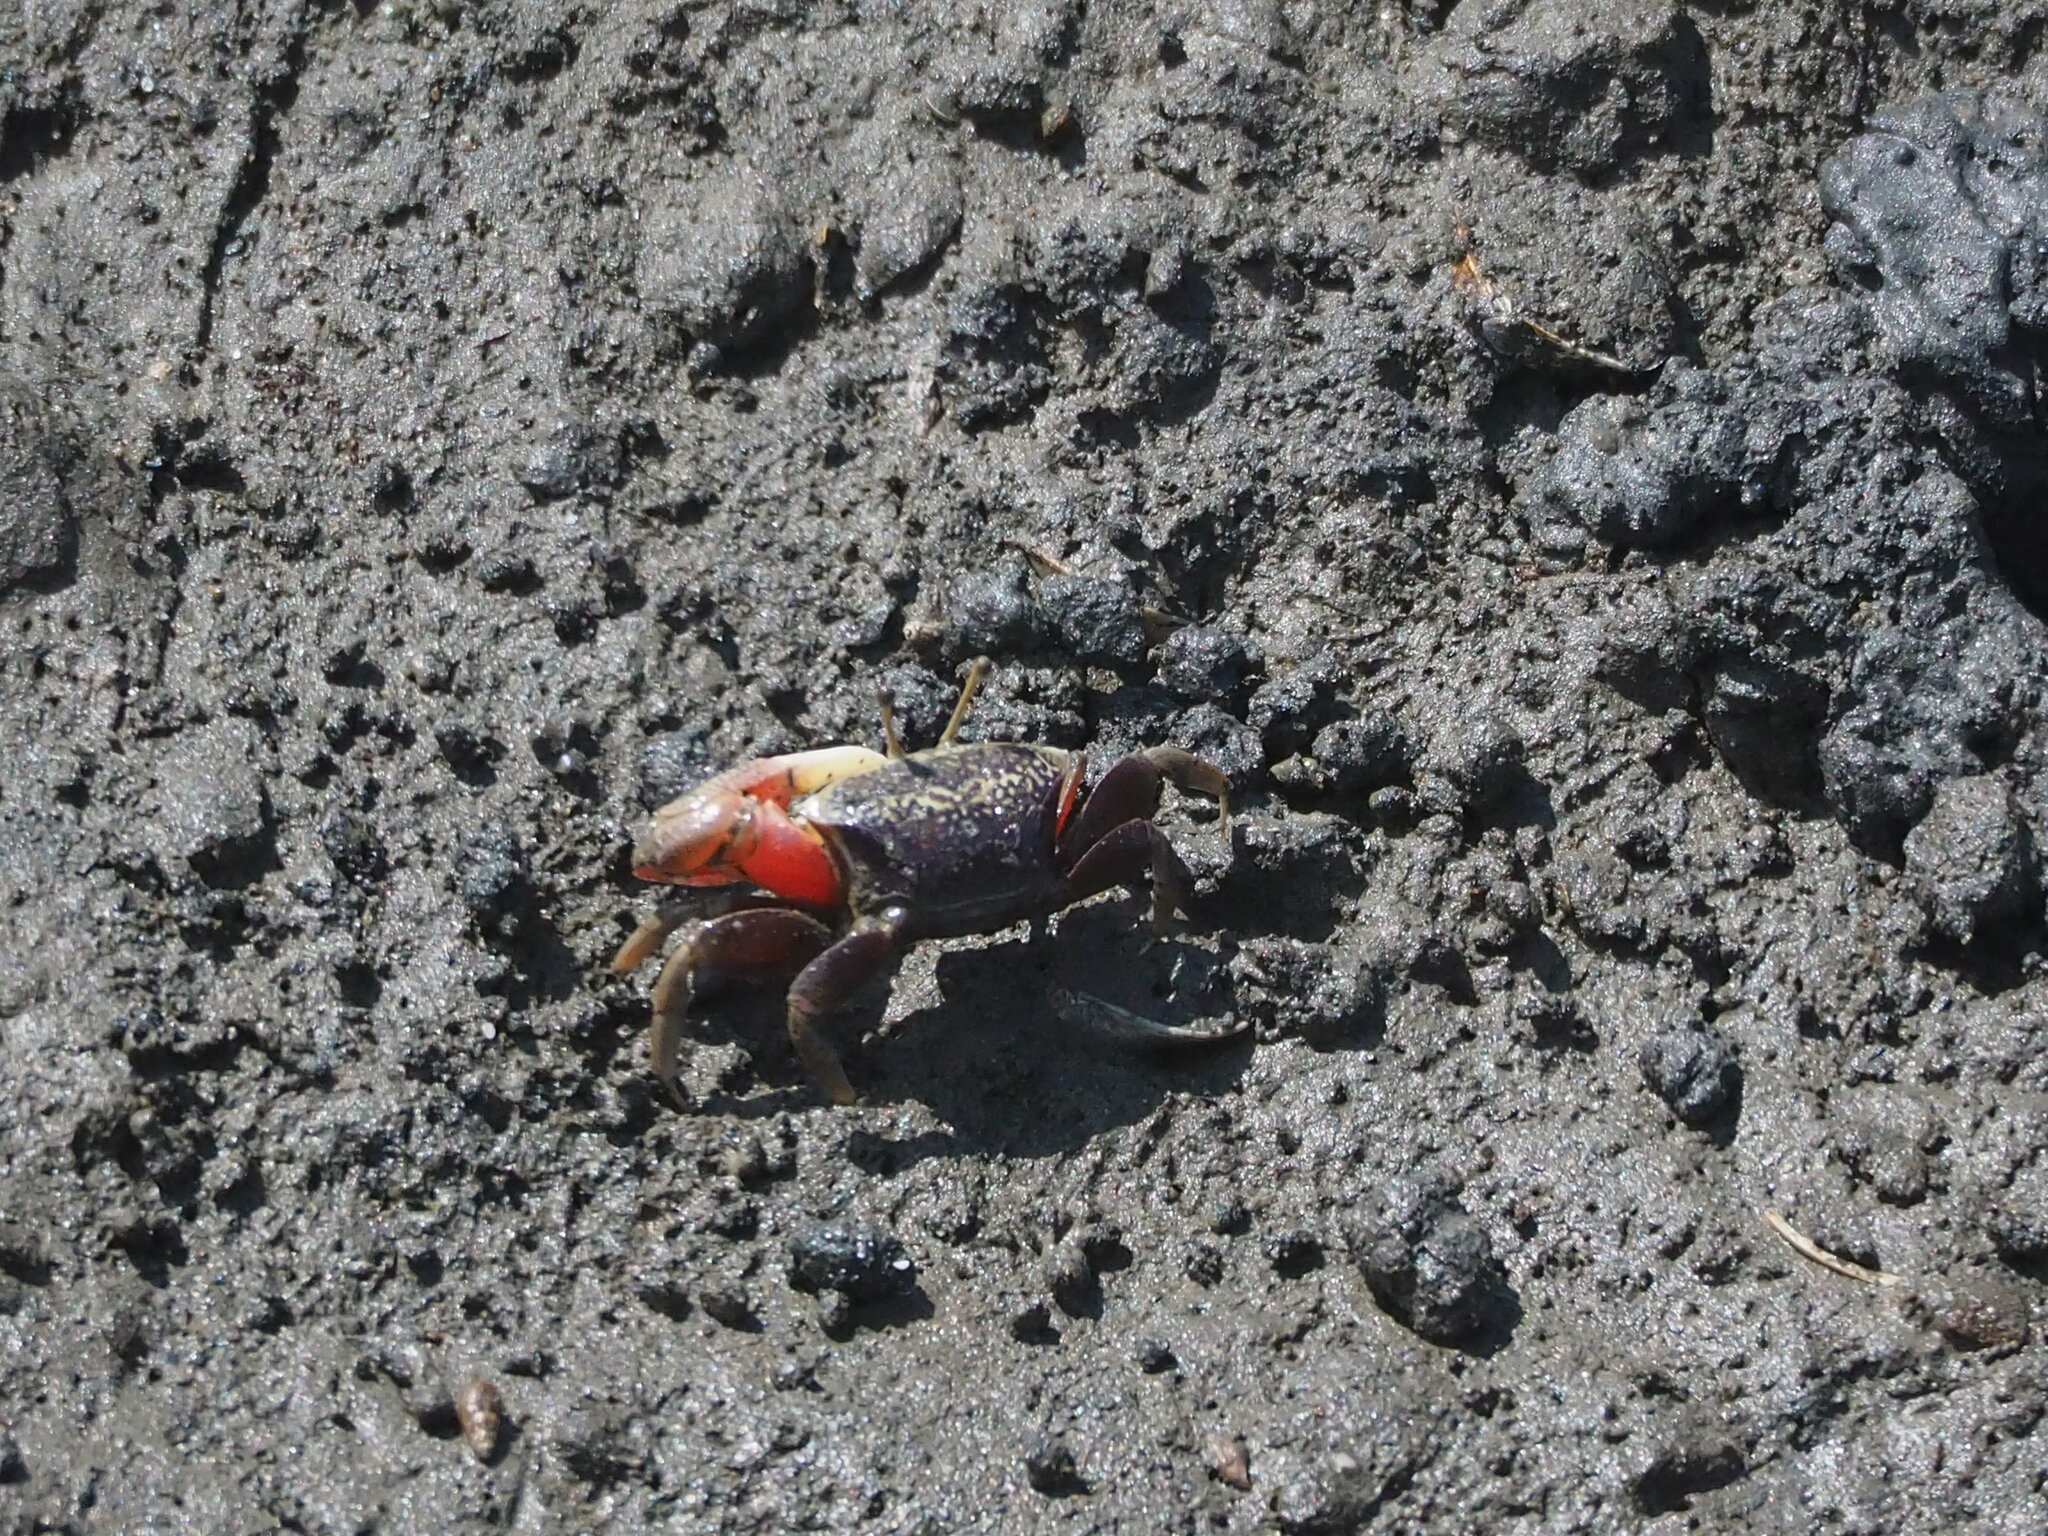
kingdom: Animalia
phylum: Arthropoda
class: Malacostraca
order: Decapoda
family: Ocypodidae
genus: Tubuca
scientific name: Tubuca arcuata
